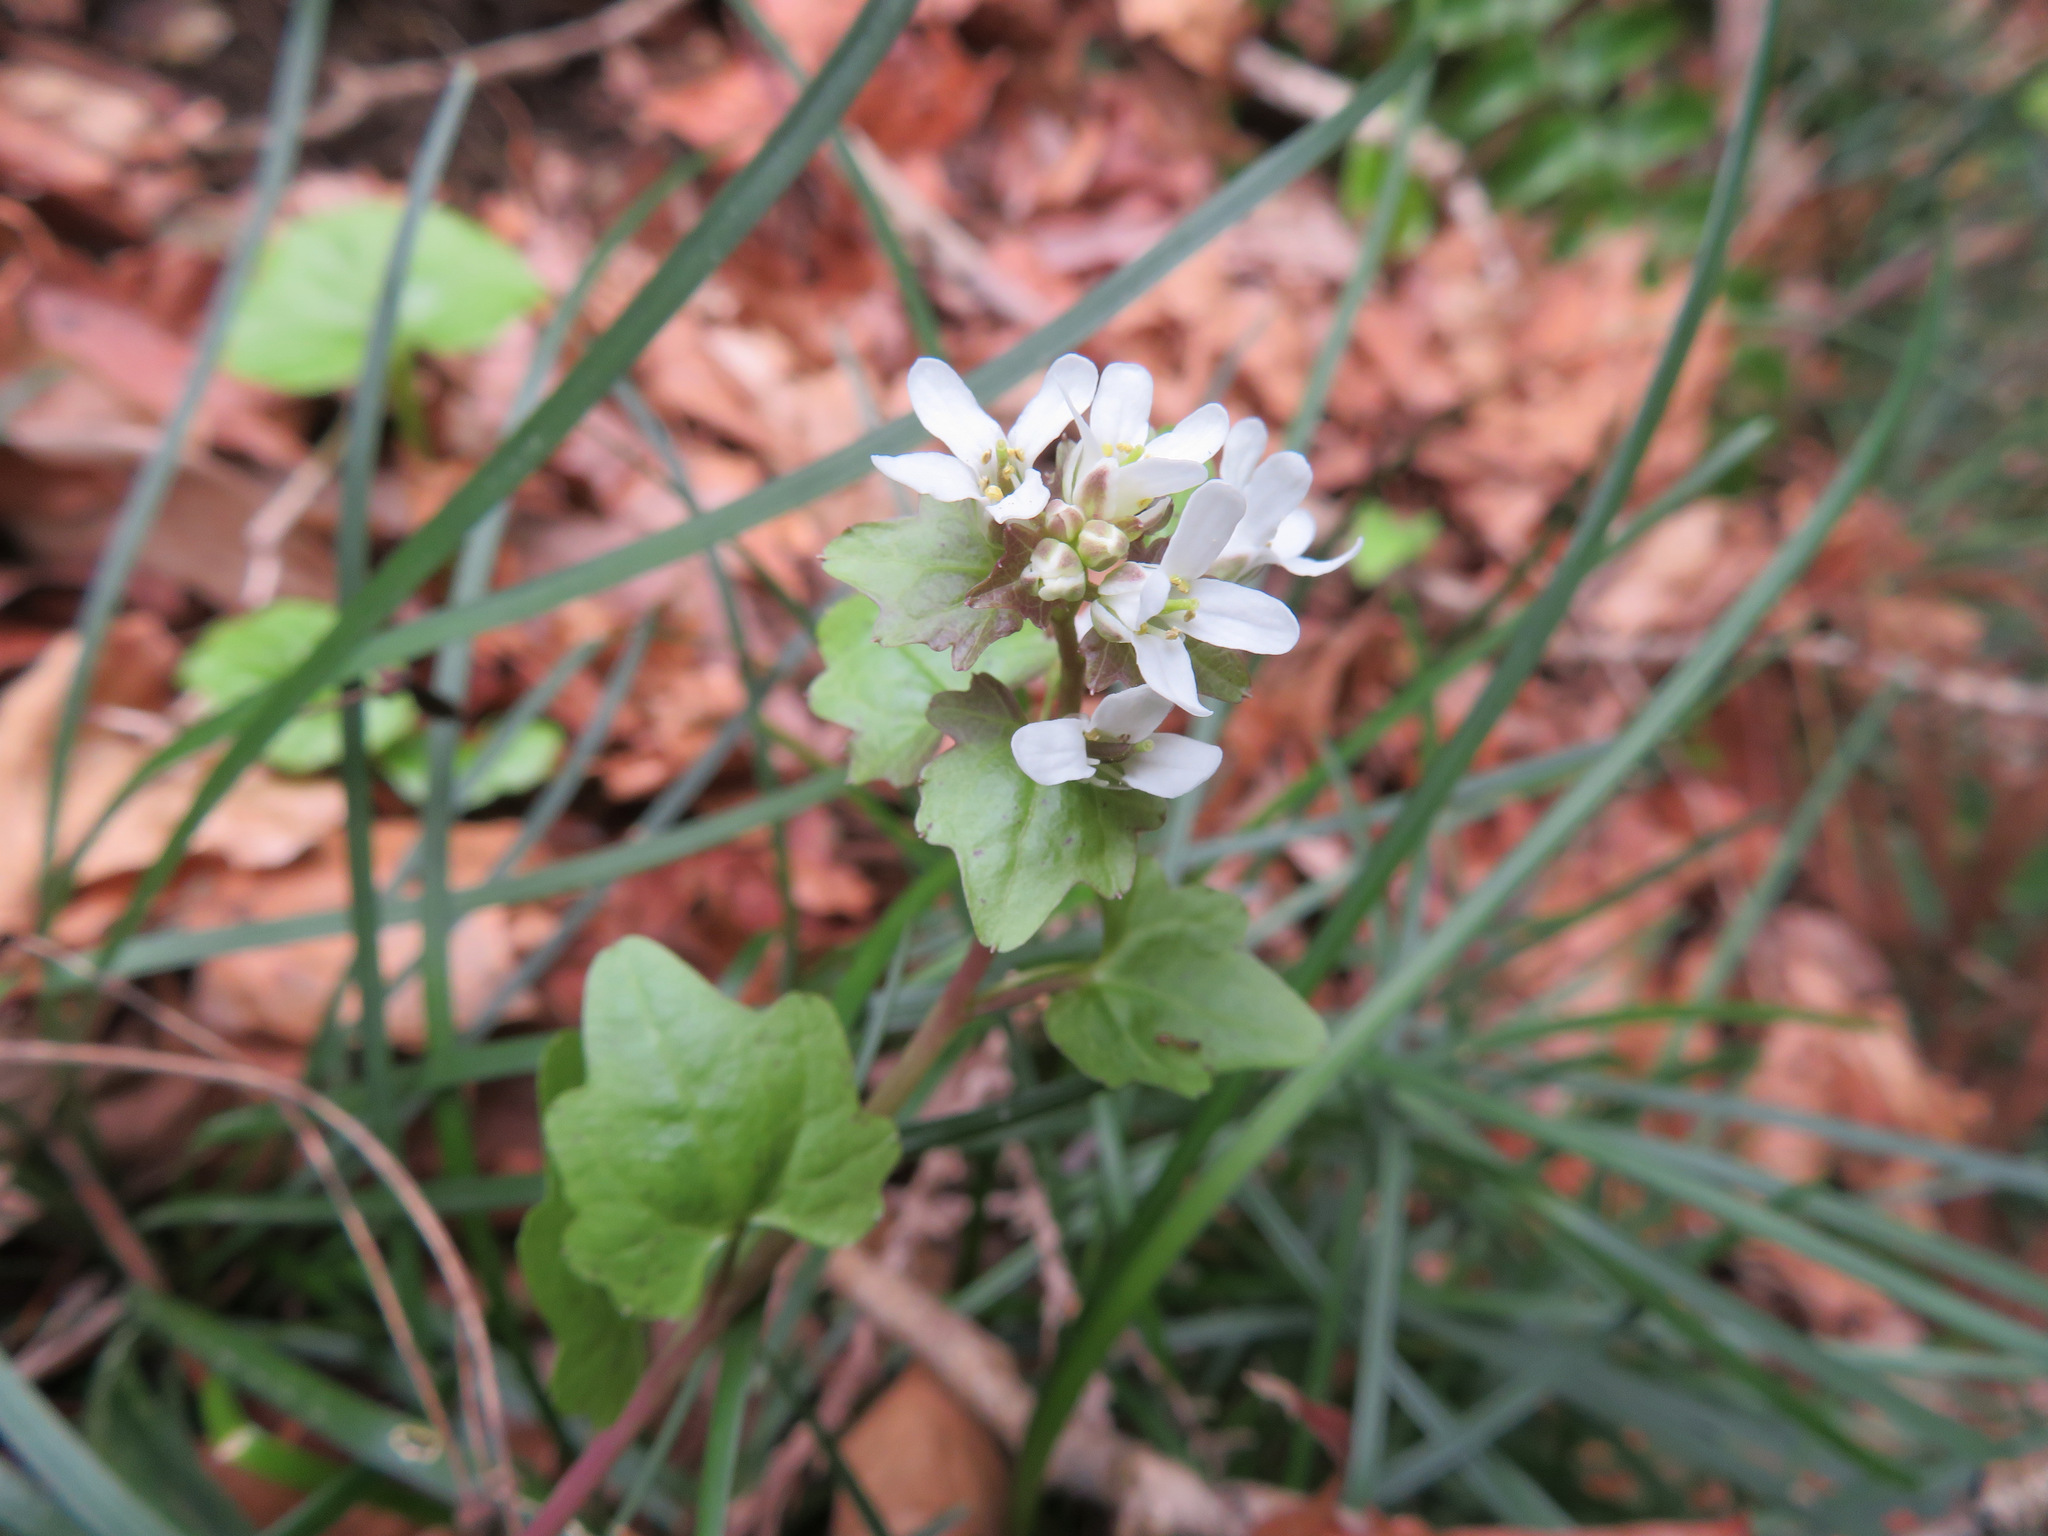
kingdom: Plantae
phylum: Tracheophyta
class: Magnoliopsida
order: Brassicales
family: Brassicaceae
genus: Eutrema
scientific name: Eutrema tenue
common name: Lesser wasabi
